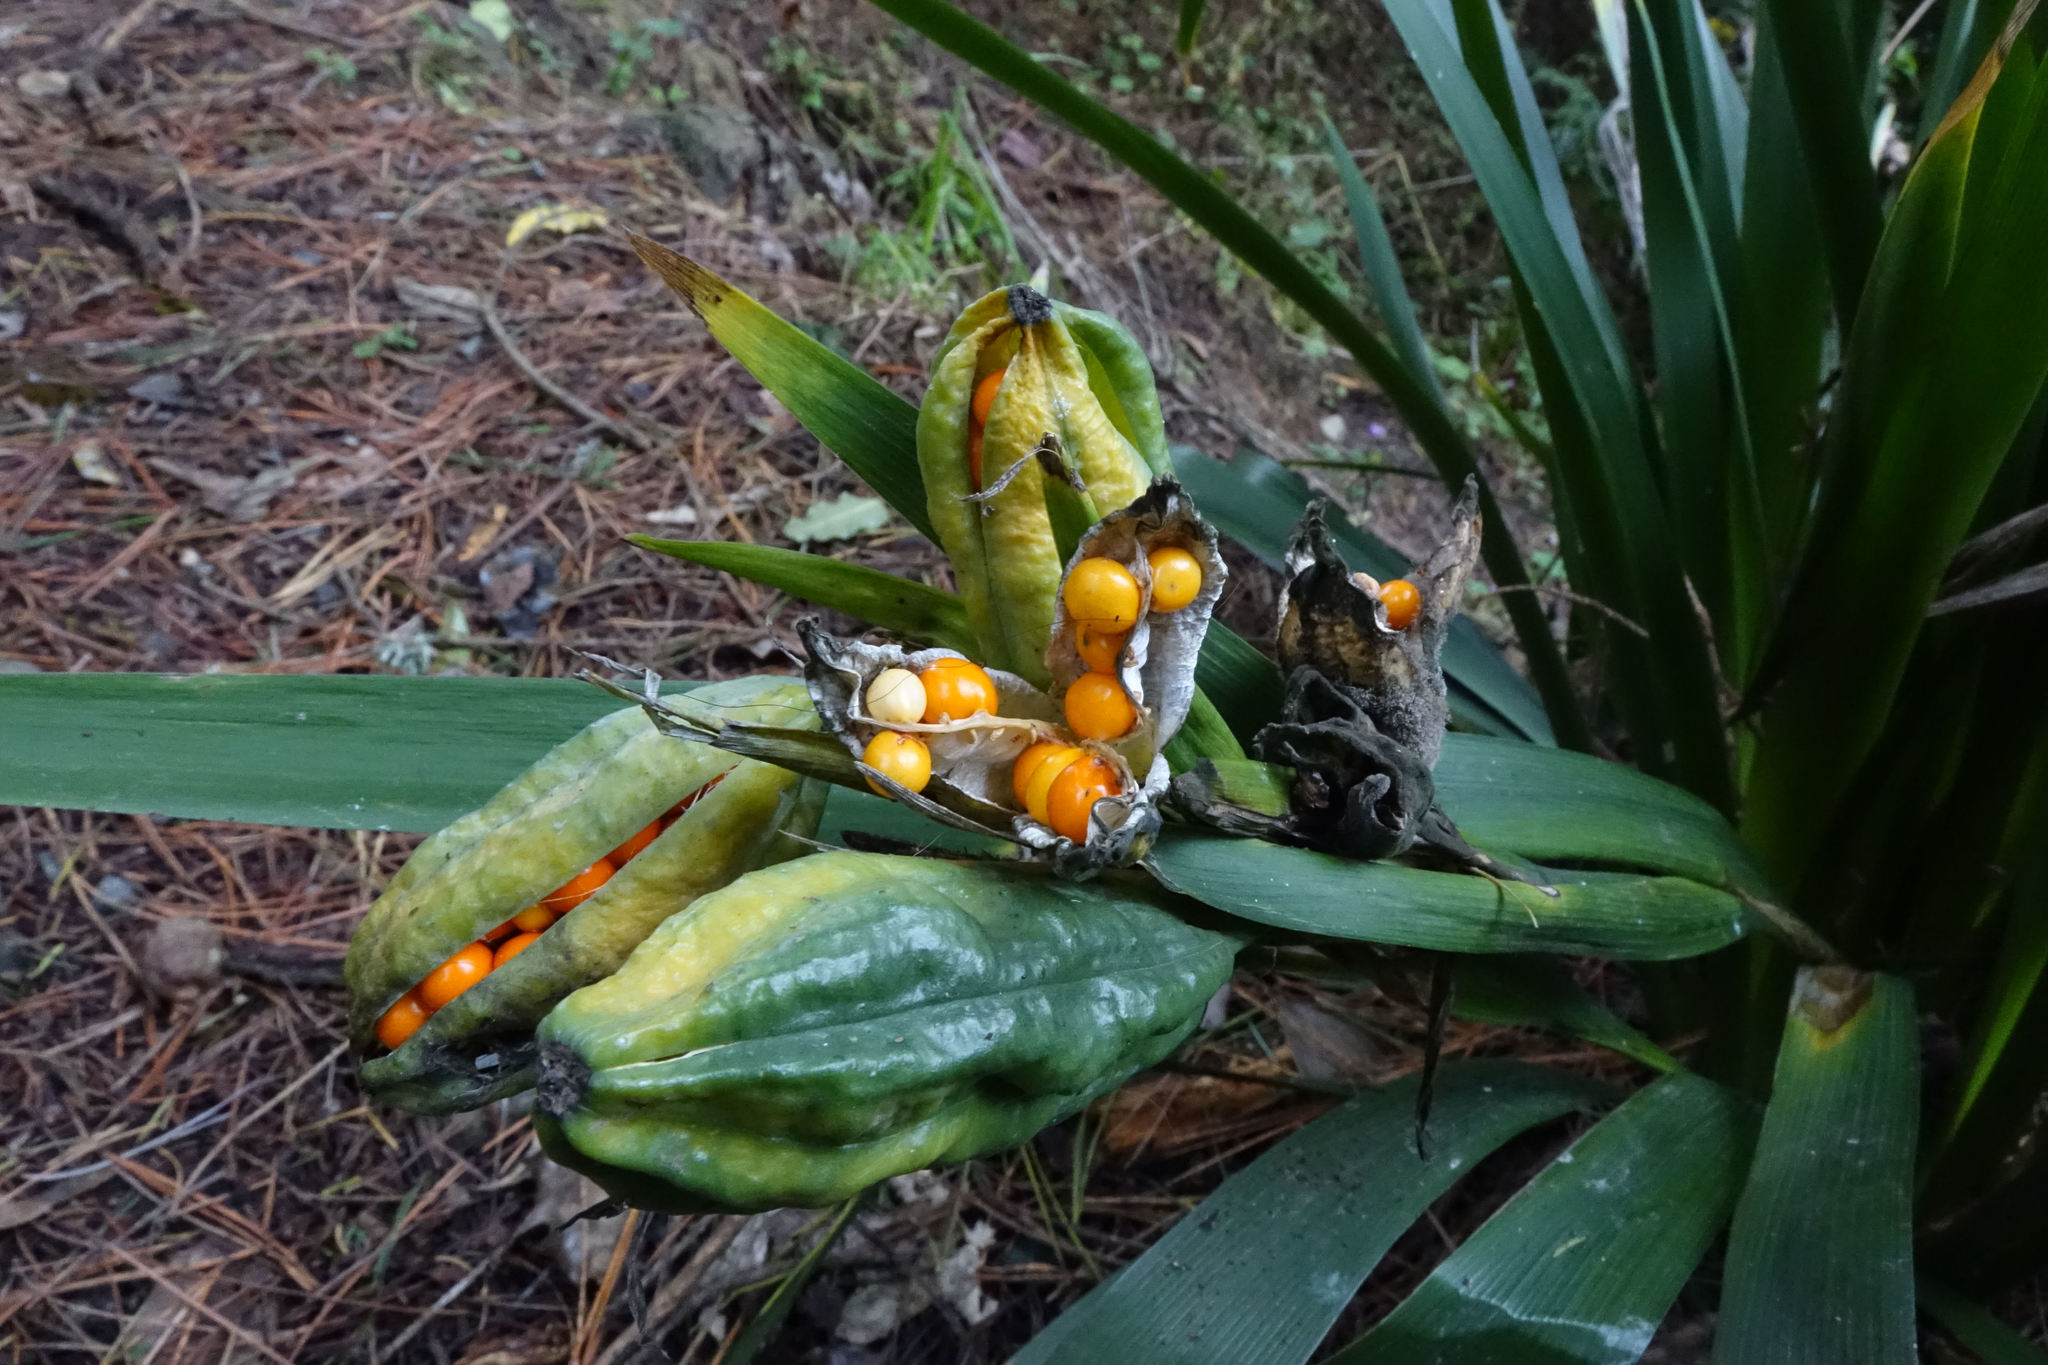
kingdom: Plantae
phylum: Tracheophyta
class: Liliopsida
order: Asparagales
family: Iridaceae
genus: Iris
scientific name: Iris foetidissima
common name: Stinking iris
